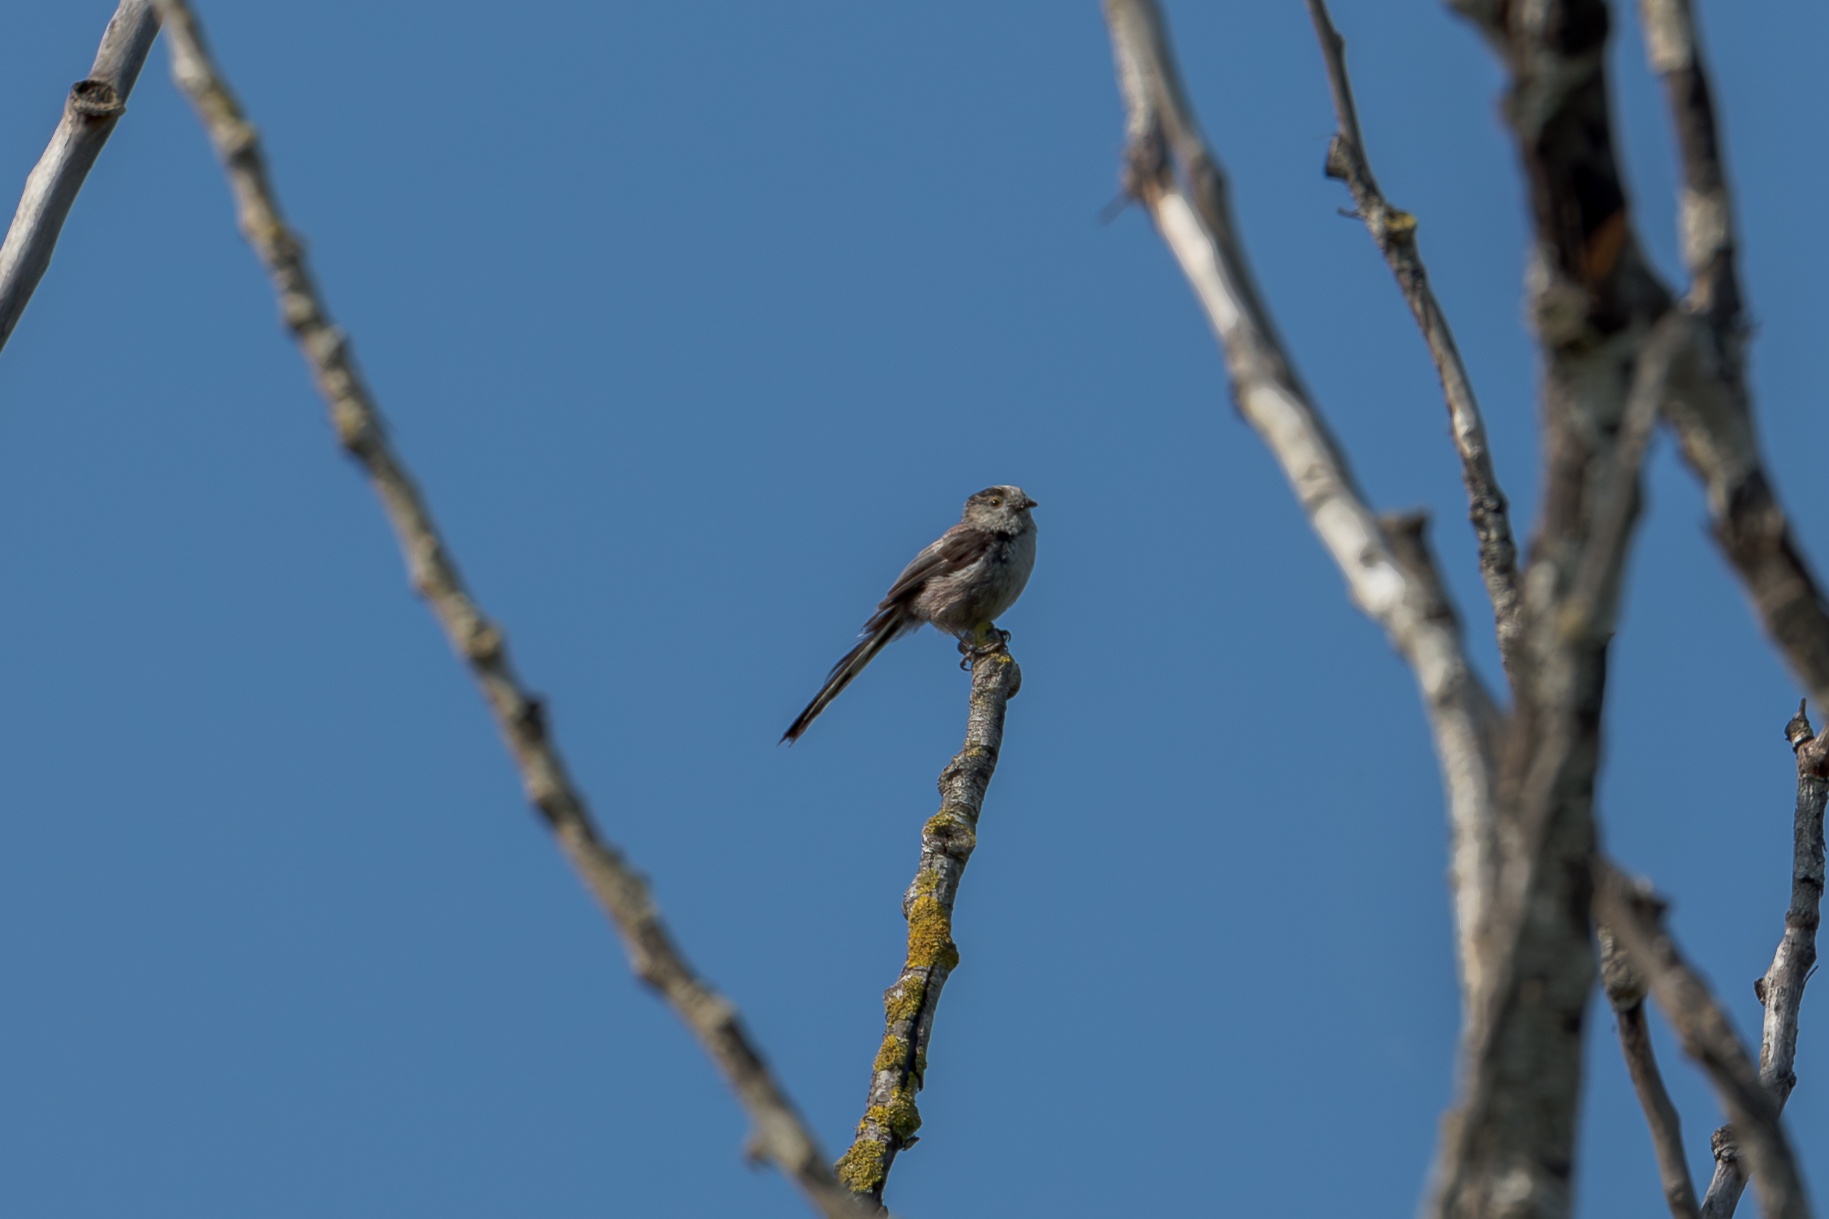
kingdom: Animalia
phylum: Chordata
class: Aves
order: Passeriformes
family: Aegithalidae
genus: Aegithalos
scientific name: Aegithalos caudatus
